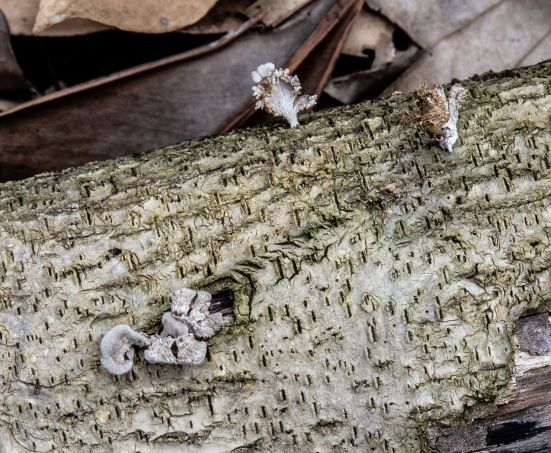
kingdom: Fungi
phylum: Basidiomycota
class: Agaricomycetes
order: Agaricales
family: Schizophyllaceae
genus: Schizophyllum
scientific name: Schizophyllum commune
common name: Common porecrust
